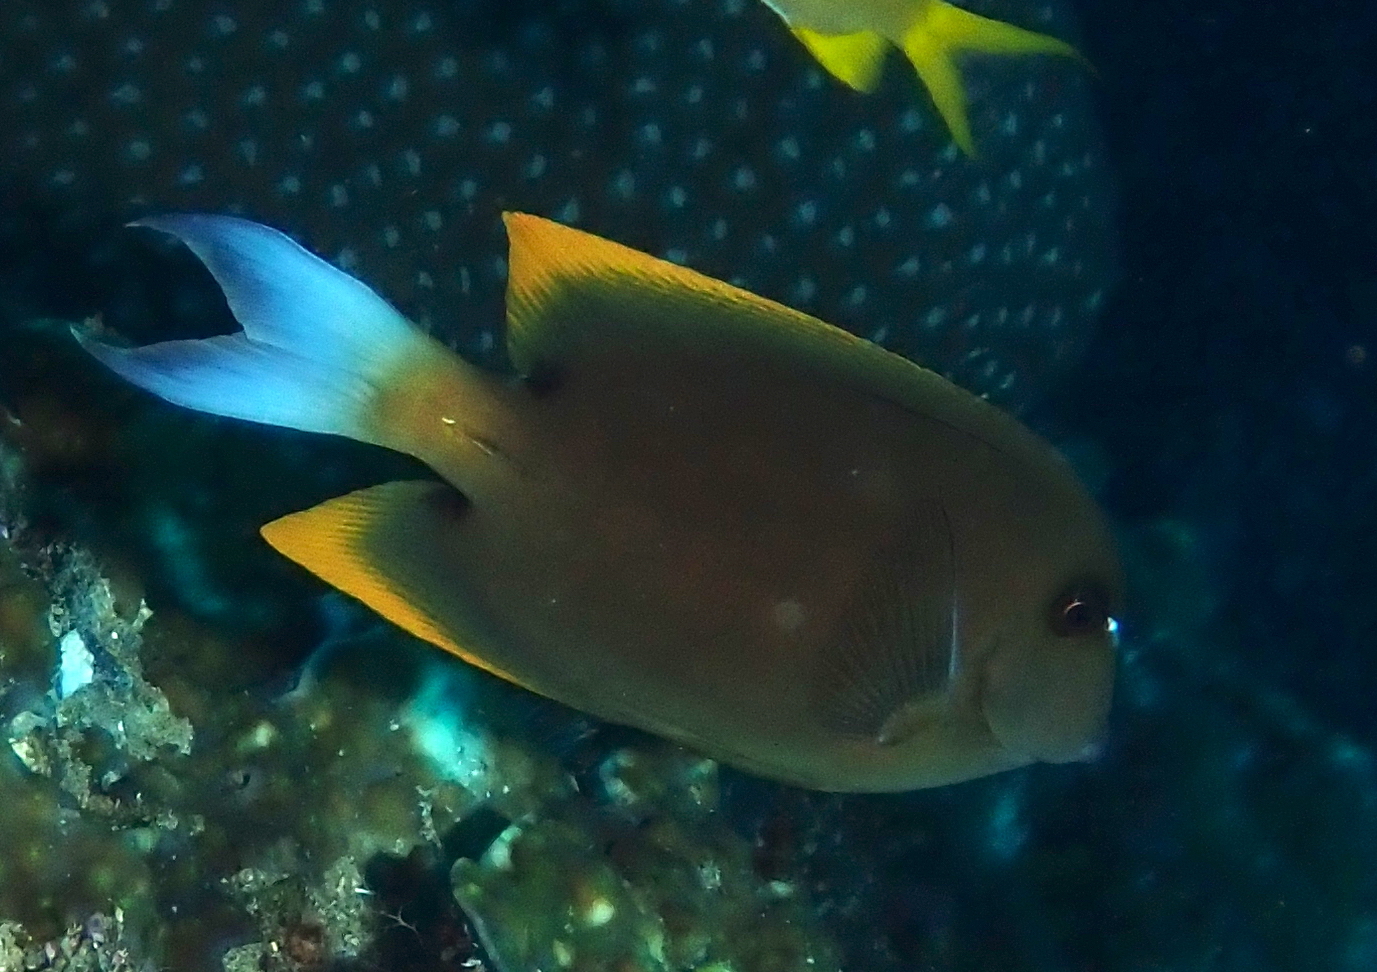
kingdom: Animalia
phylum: Chordata
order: Perciformes
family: Acanthuridae
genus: Ctenochaetus
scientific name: Ctenochaetus tominiensis
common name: Orange-tipped bristletooth
